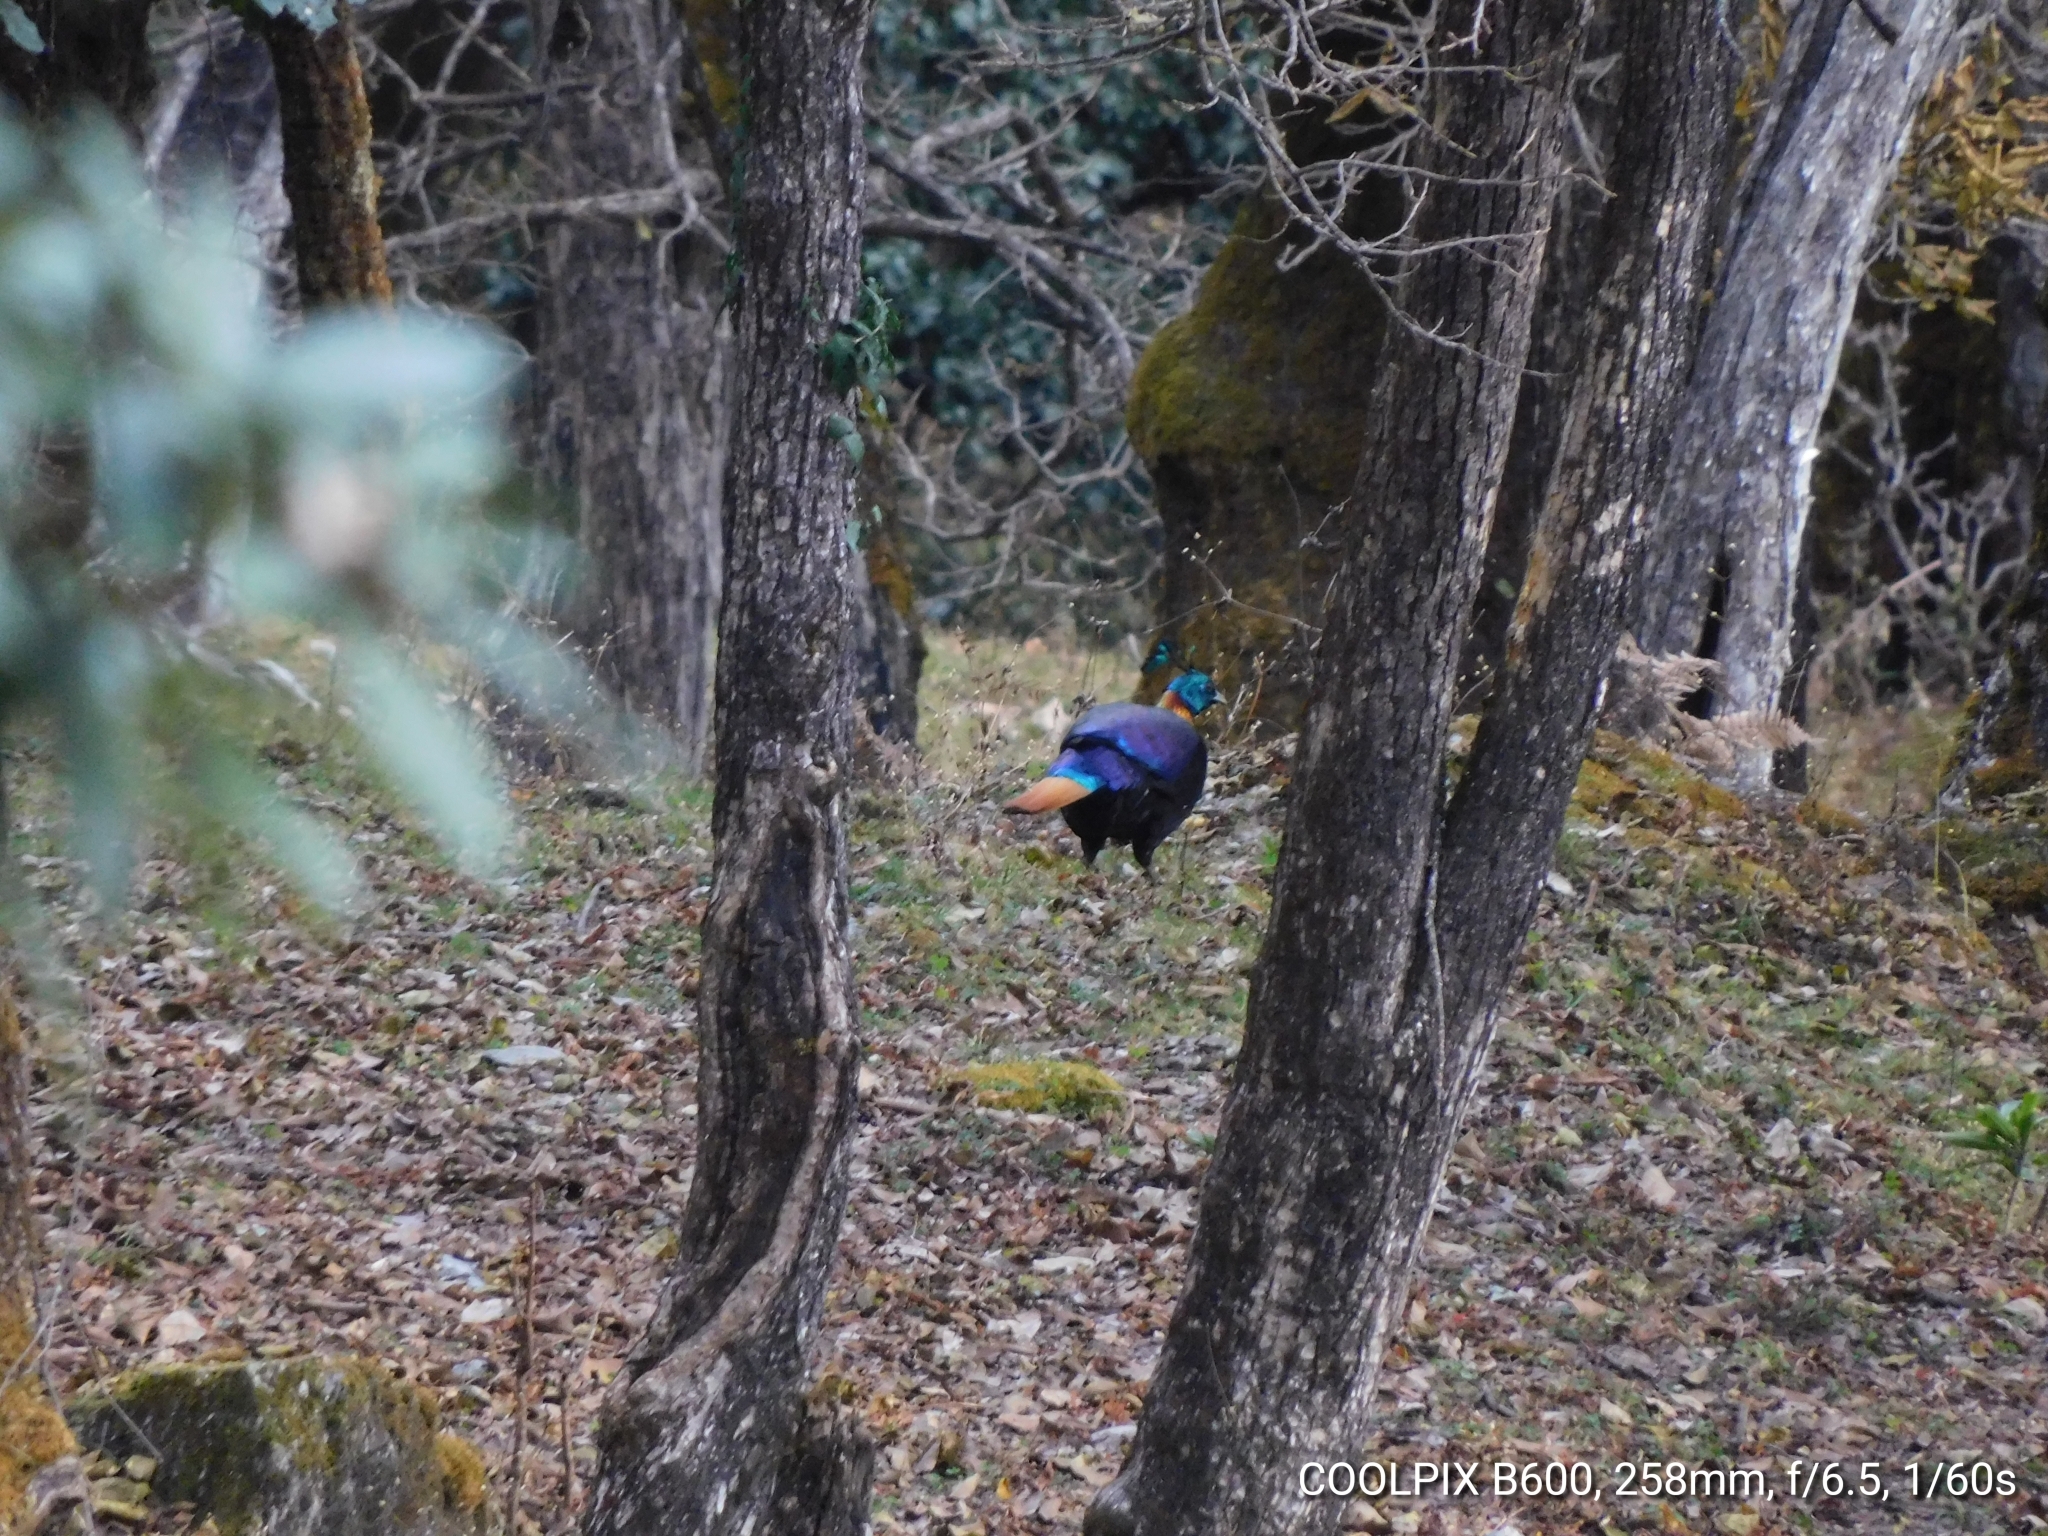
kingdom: Animalia
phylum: Chordata
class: Aves
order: Galliformes
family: Phasianidae
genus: Lophophorus
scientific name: Lophophorus impejanus
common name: Himalayan monal
